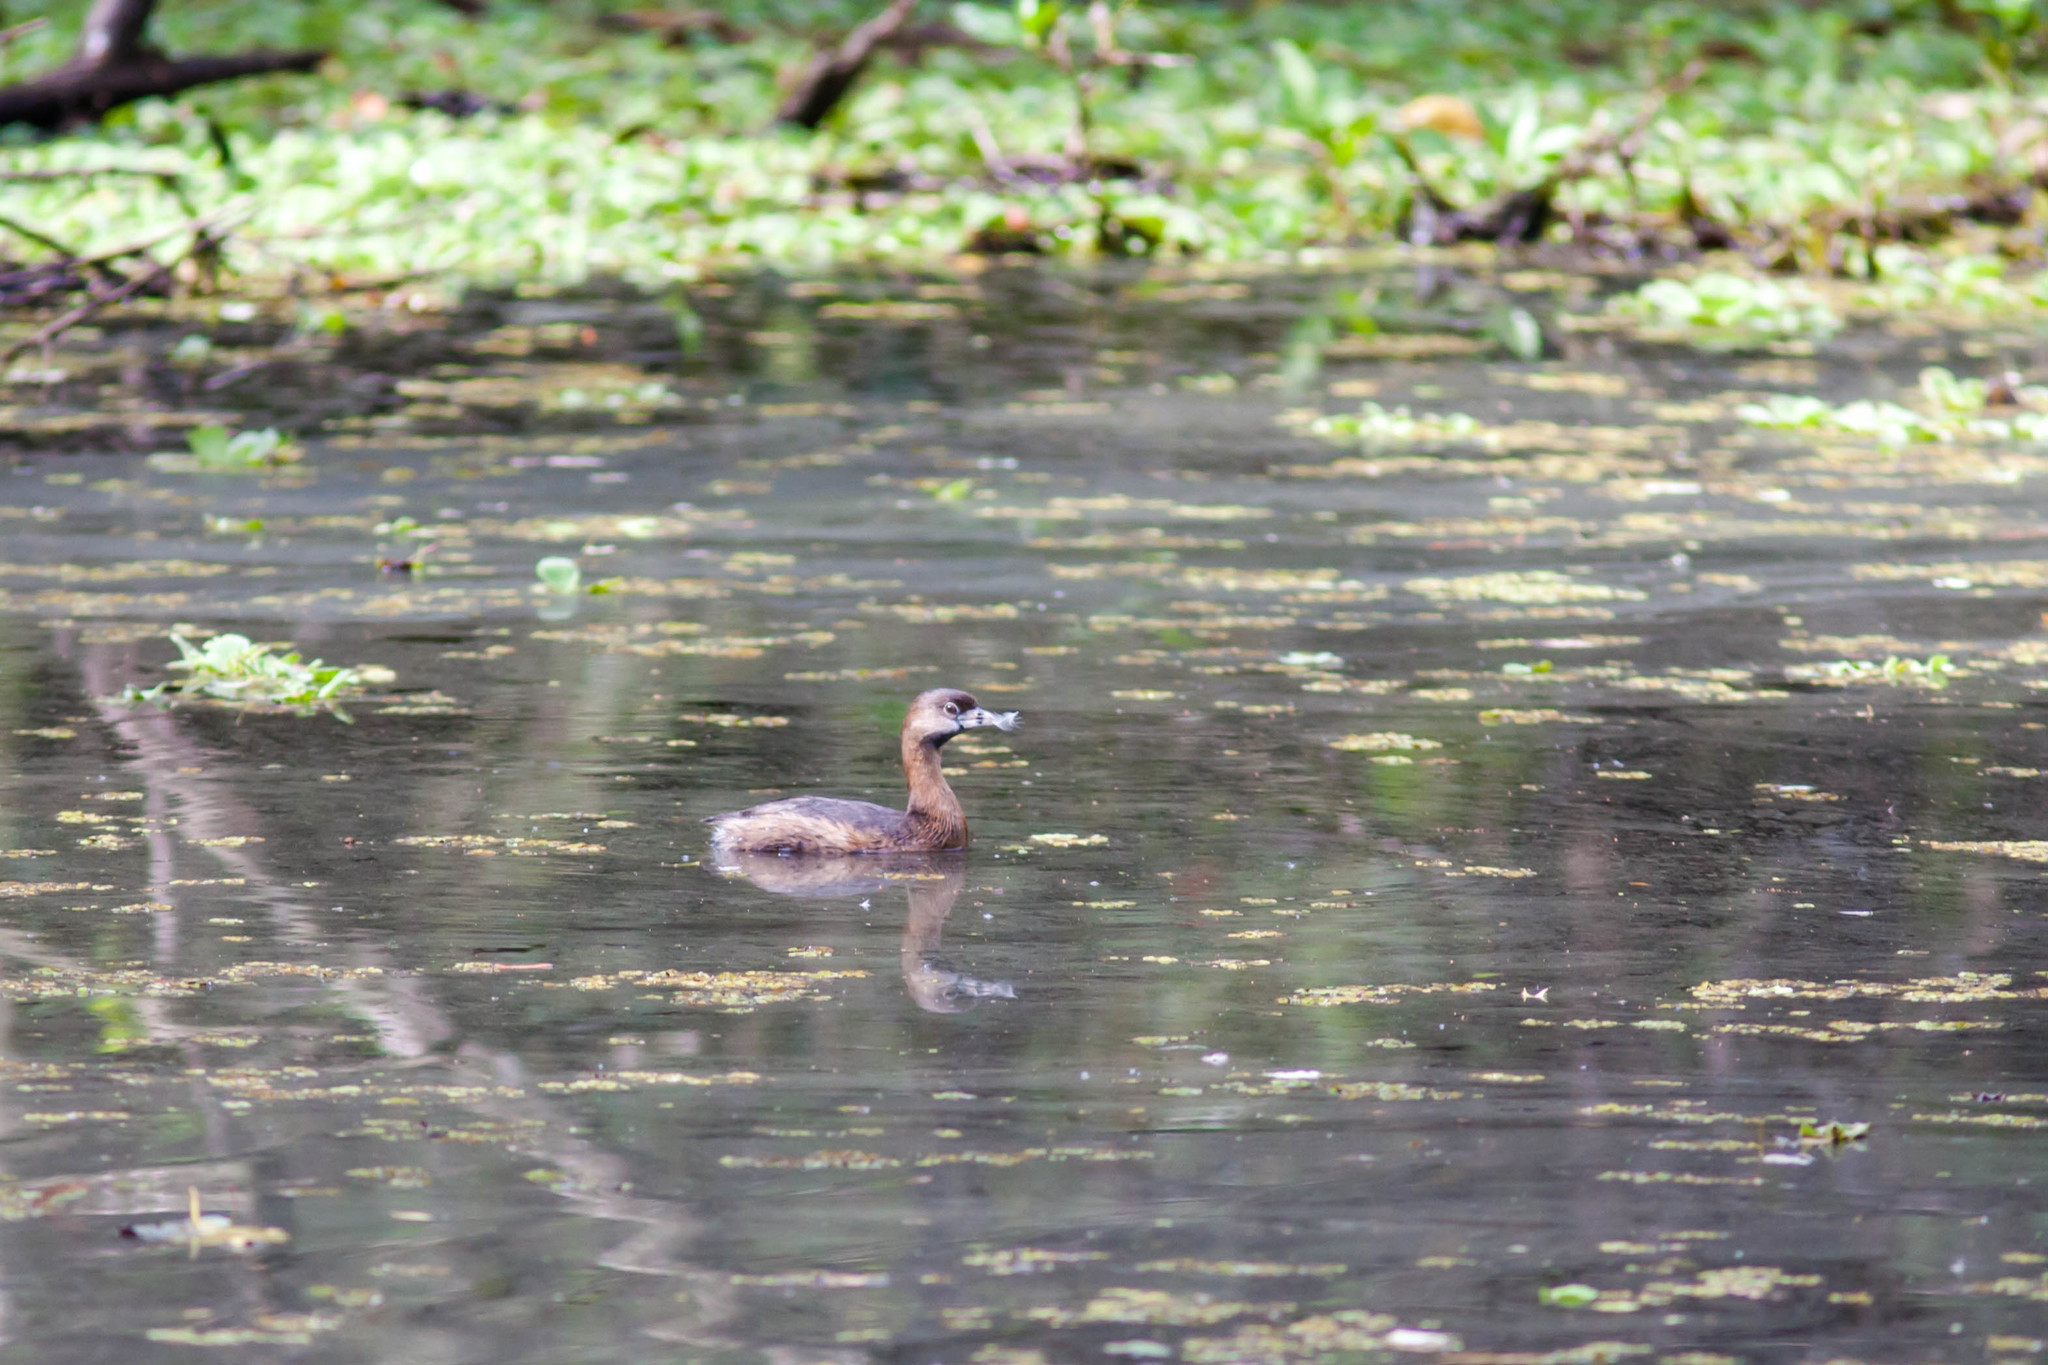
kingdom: Animalia
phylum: Chordata
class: Aves
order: Podicipediformes
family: Podicipedidae
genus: Podilymbus
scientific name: Podilymbus podiceps
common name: Pied-billed grebe
